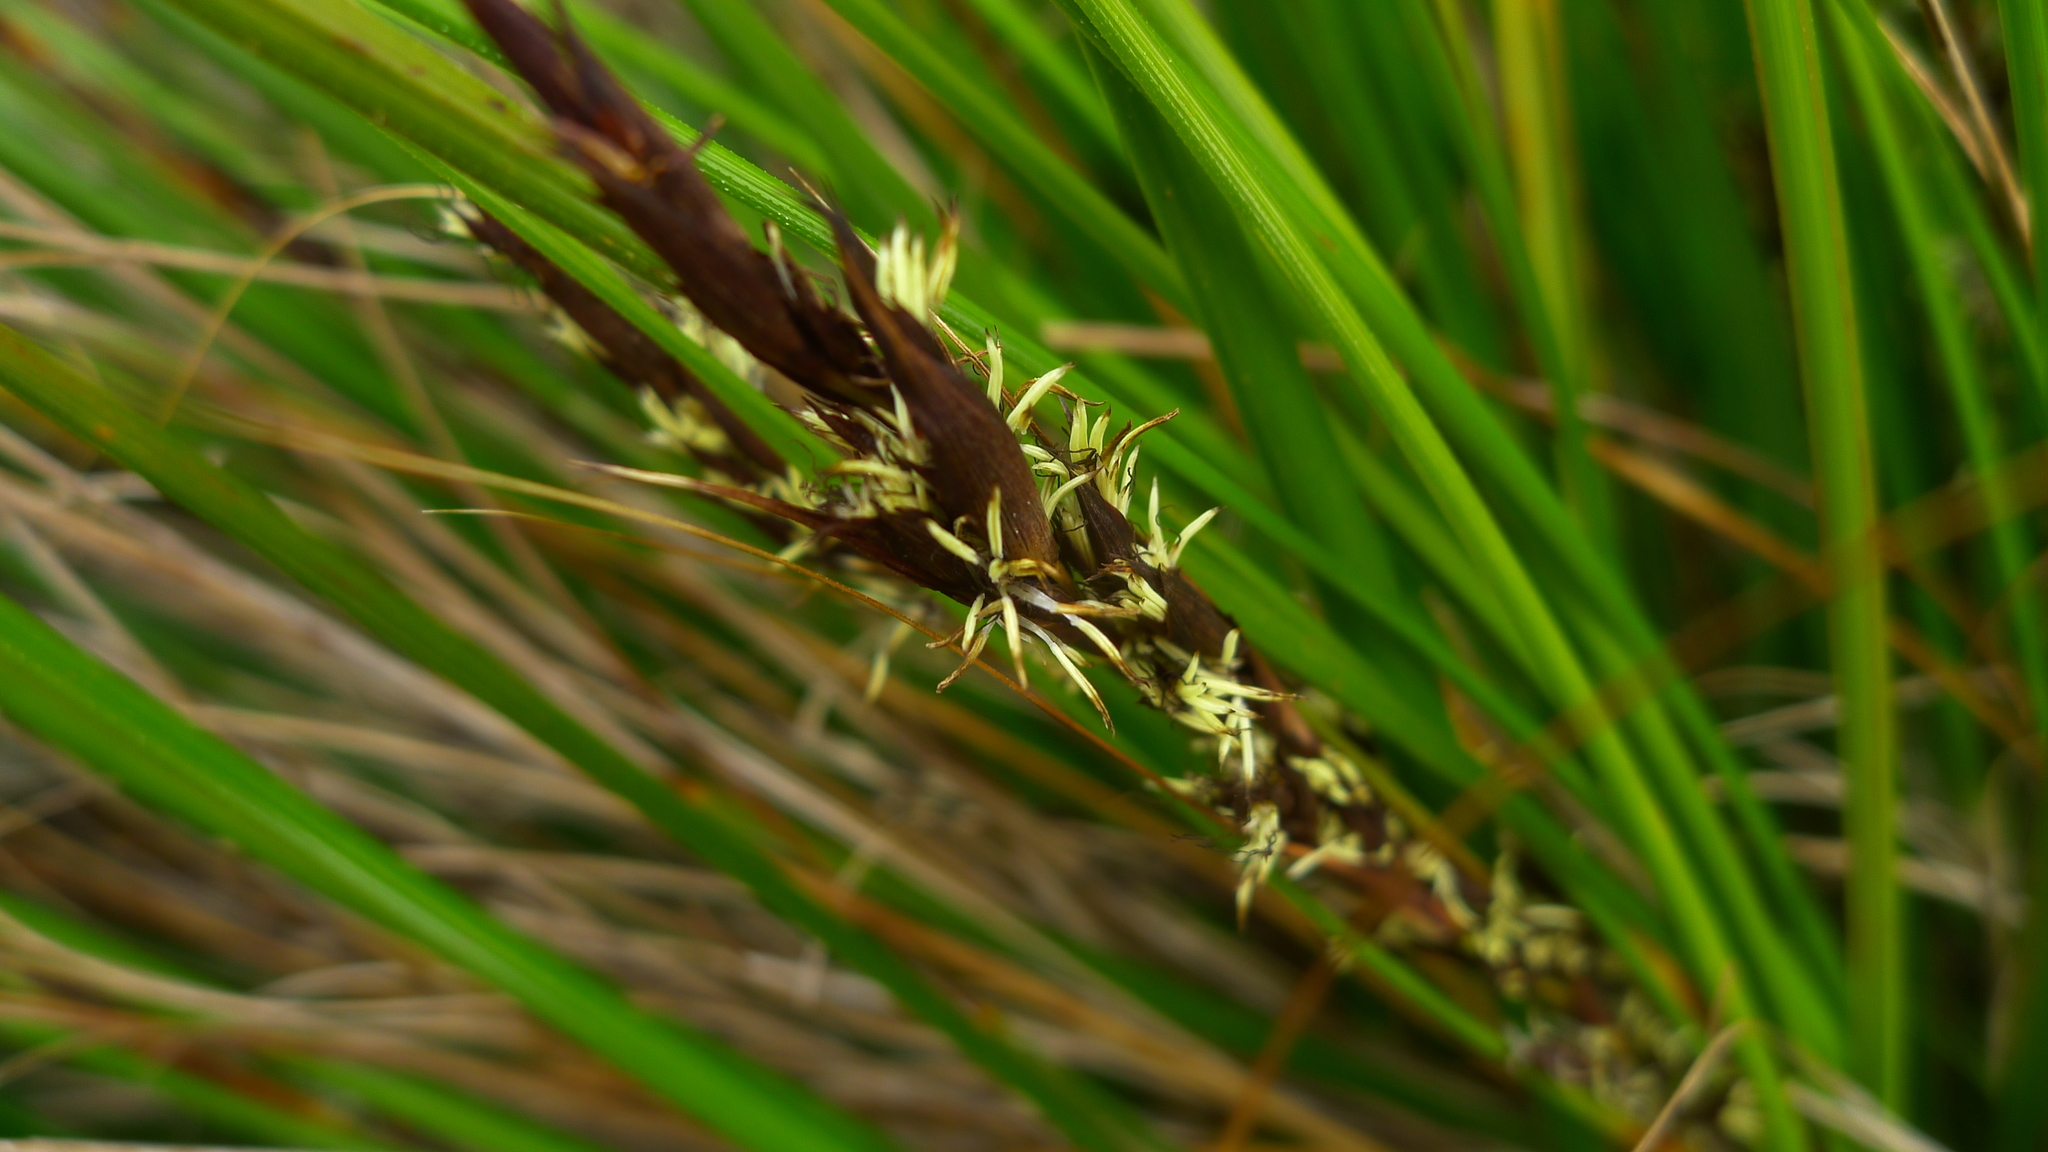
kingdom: Plantae
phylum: Tracheophyta
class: Liliopsida
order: Poales
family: Cyperaceae
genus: Gahnia
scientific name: Gahnia procera
